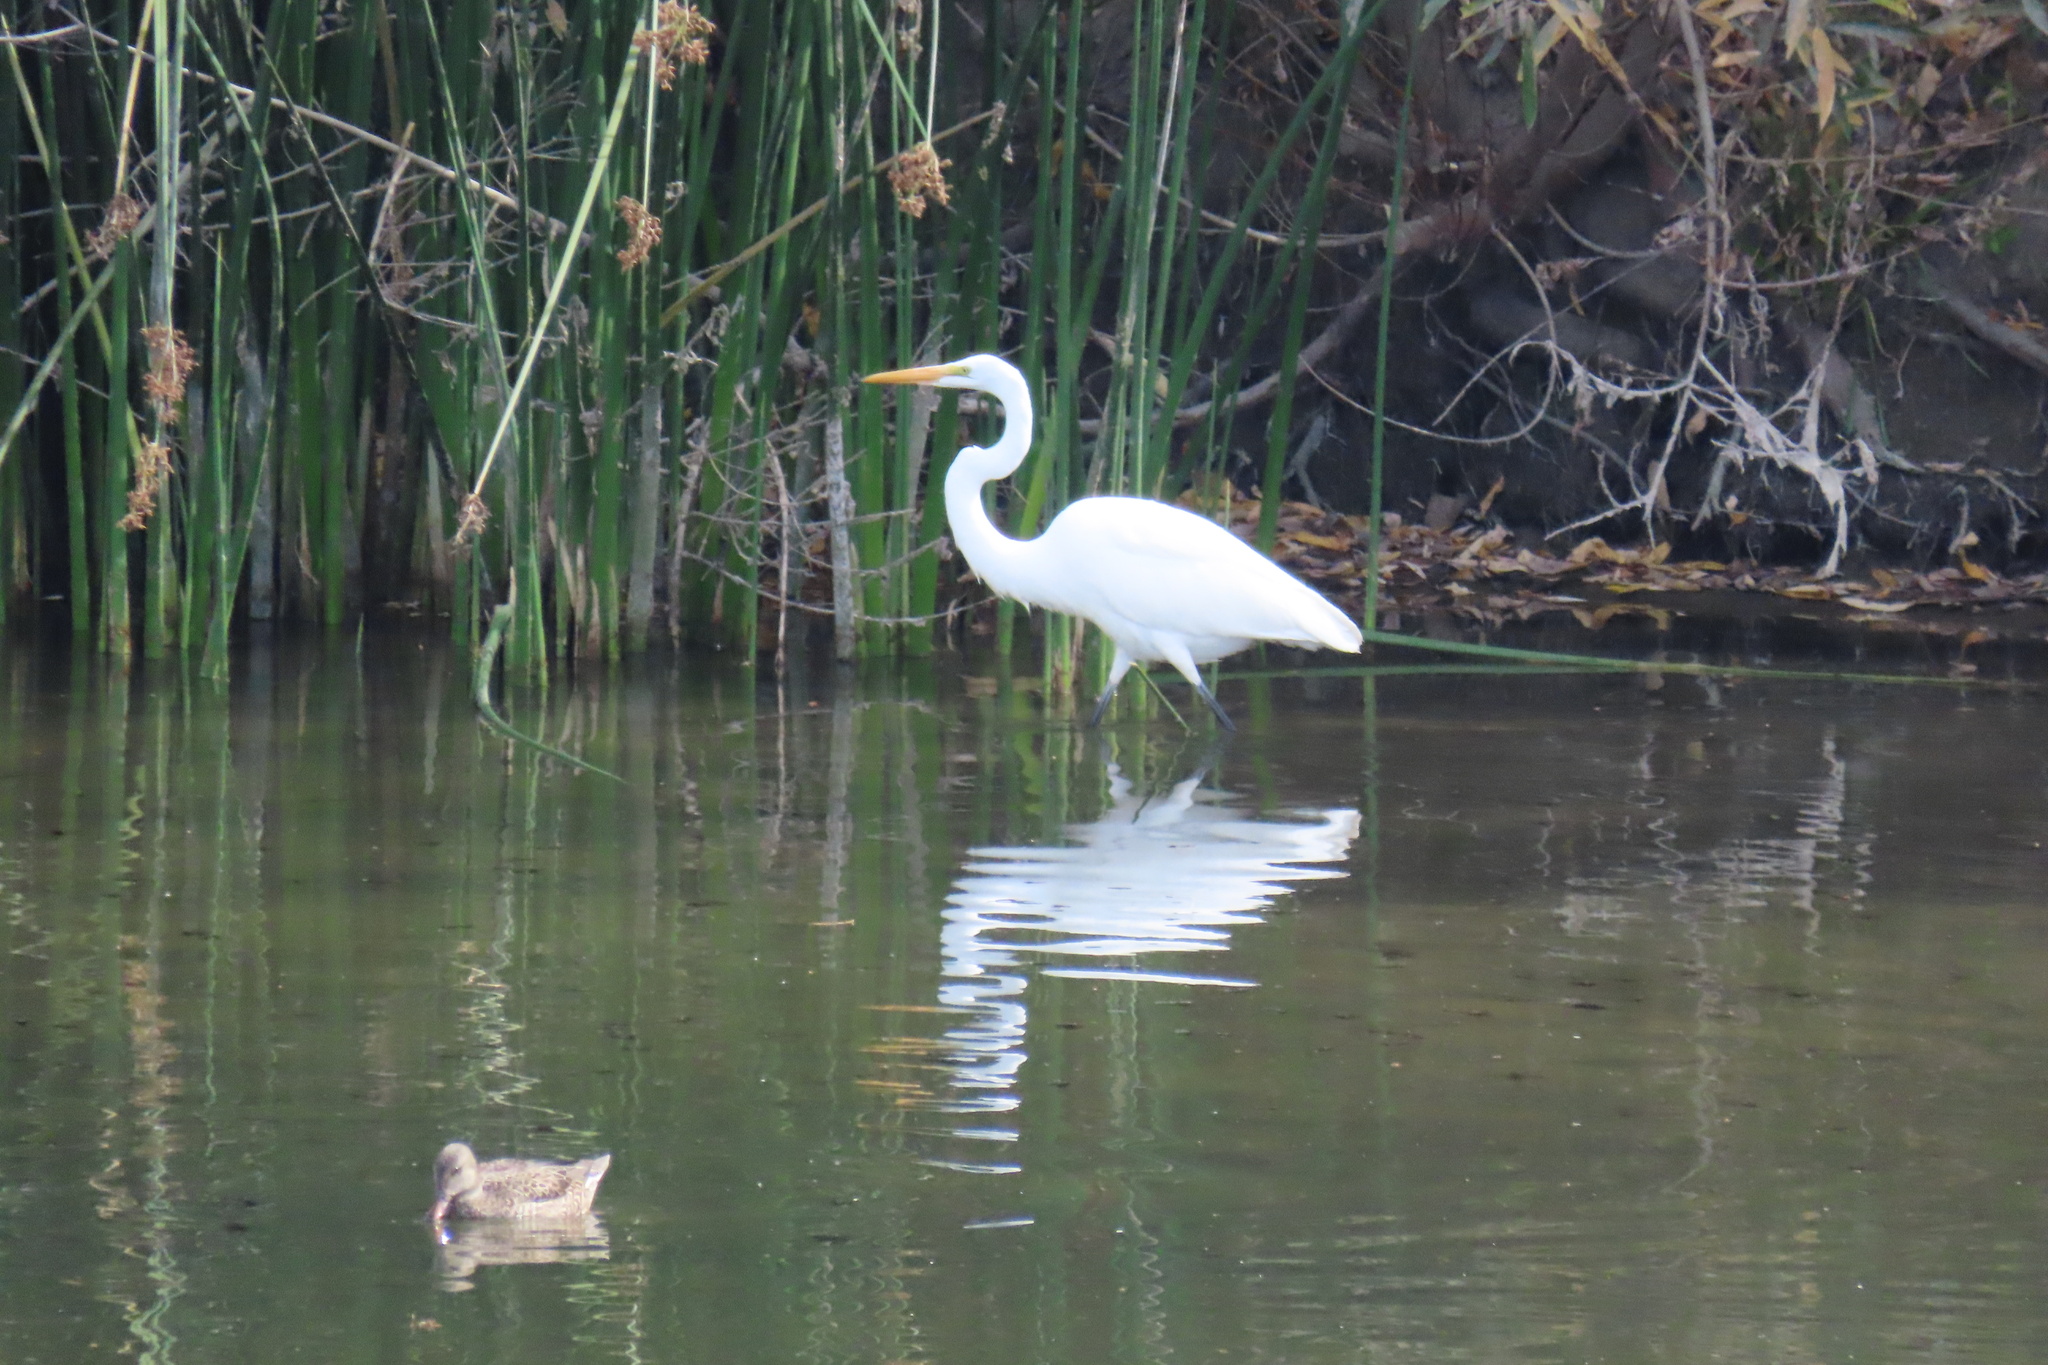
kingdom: Animalia
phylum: Chordata
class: Aves
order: Pelecaniformes
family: Ardeidae
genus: Ardea
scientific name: Ardea alba
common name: Great egret
